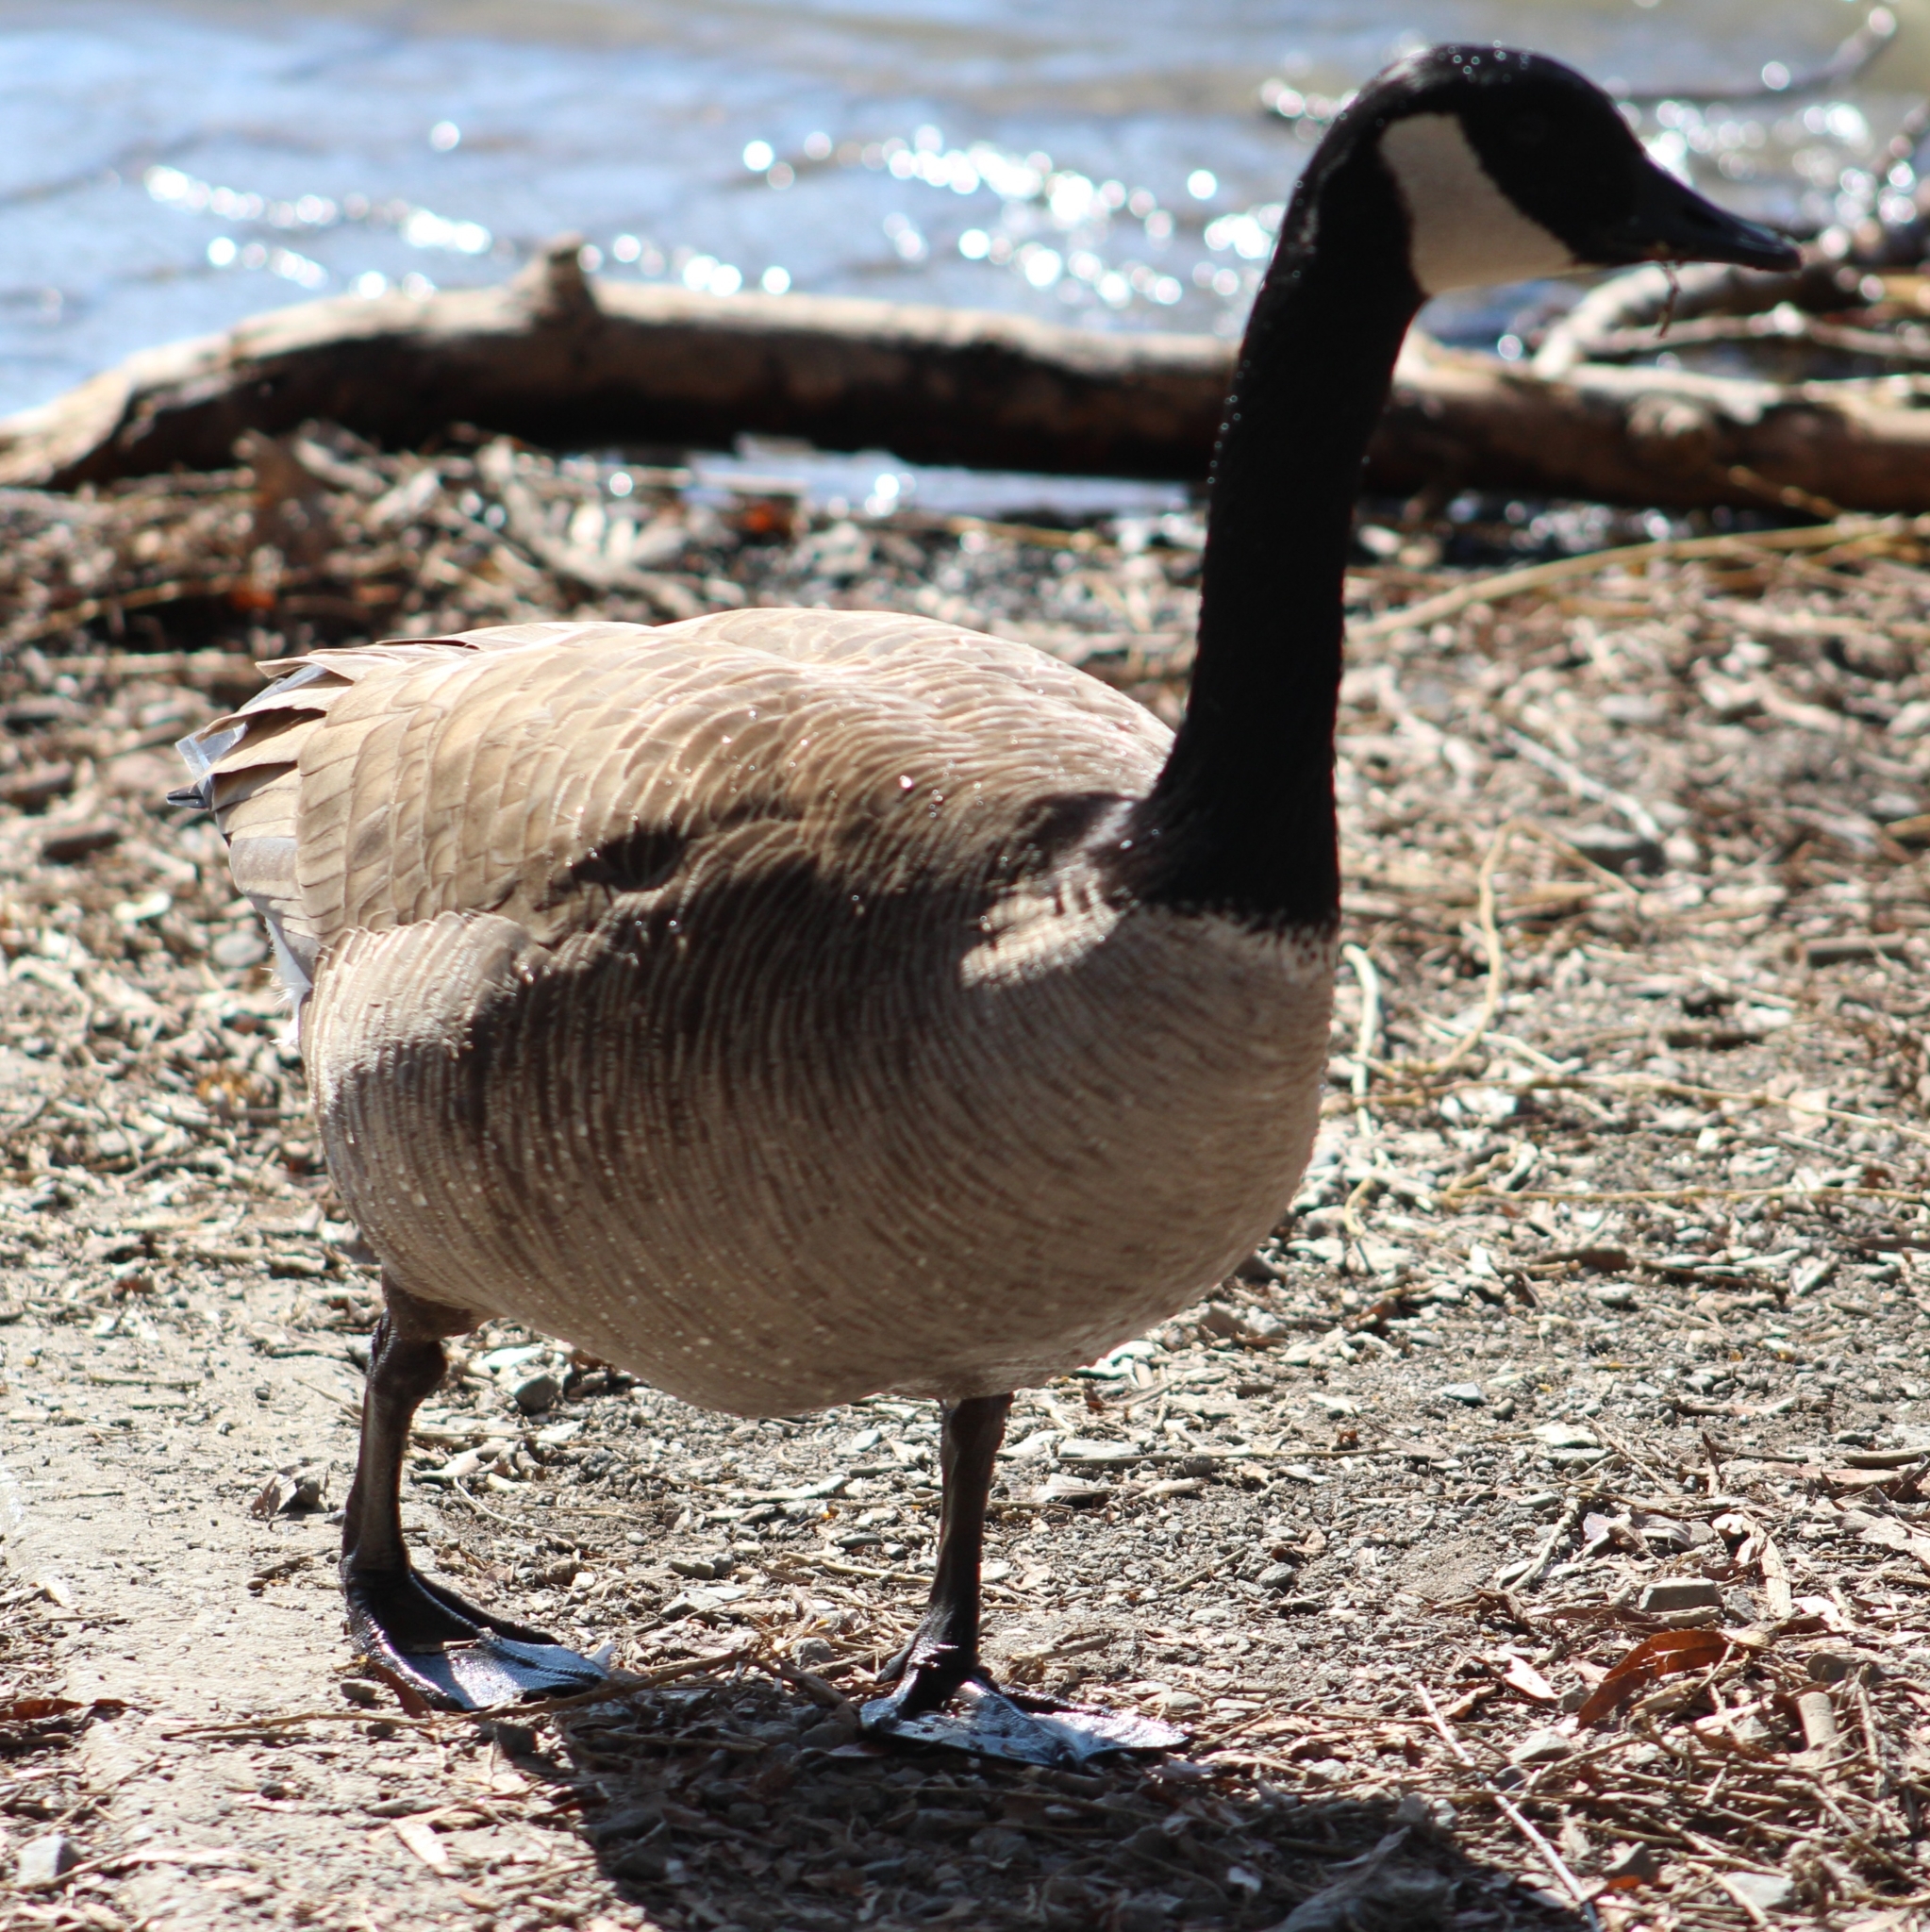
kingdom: Animalia
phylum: Chordata
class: Aves
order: Anseriformes
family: Anatidae
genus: Branta
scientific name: Branta canadensis
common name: Canada goose
